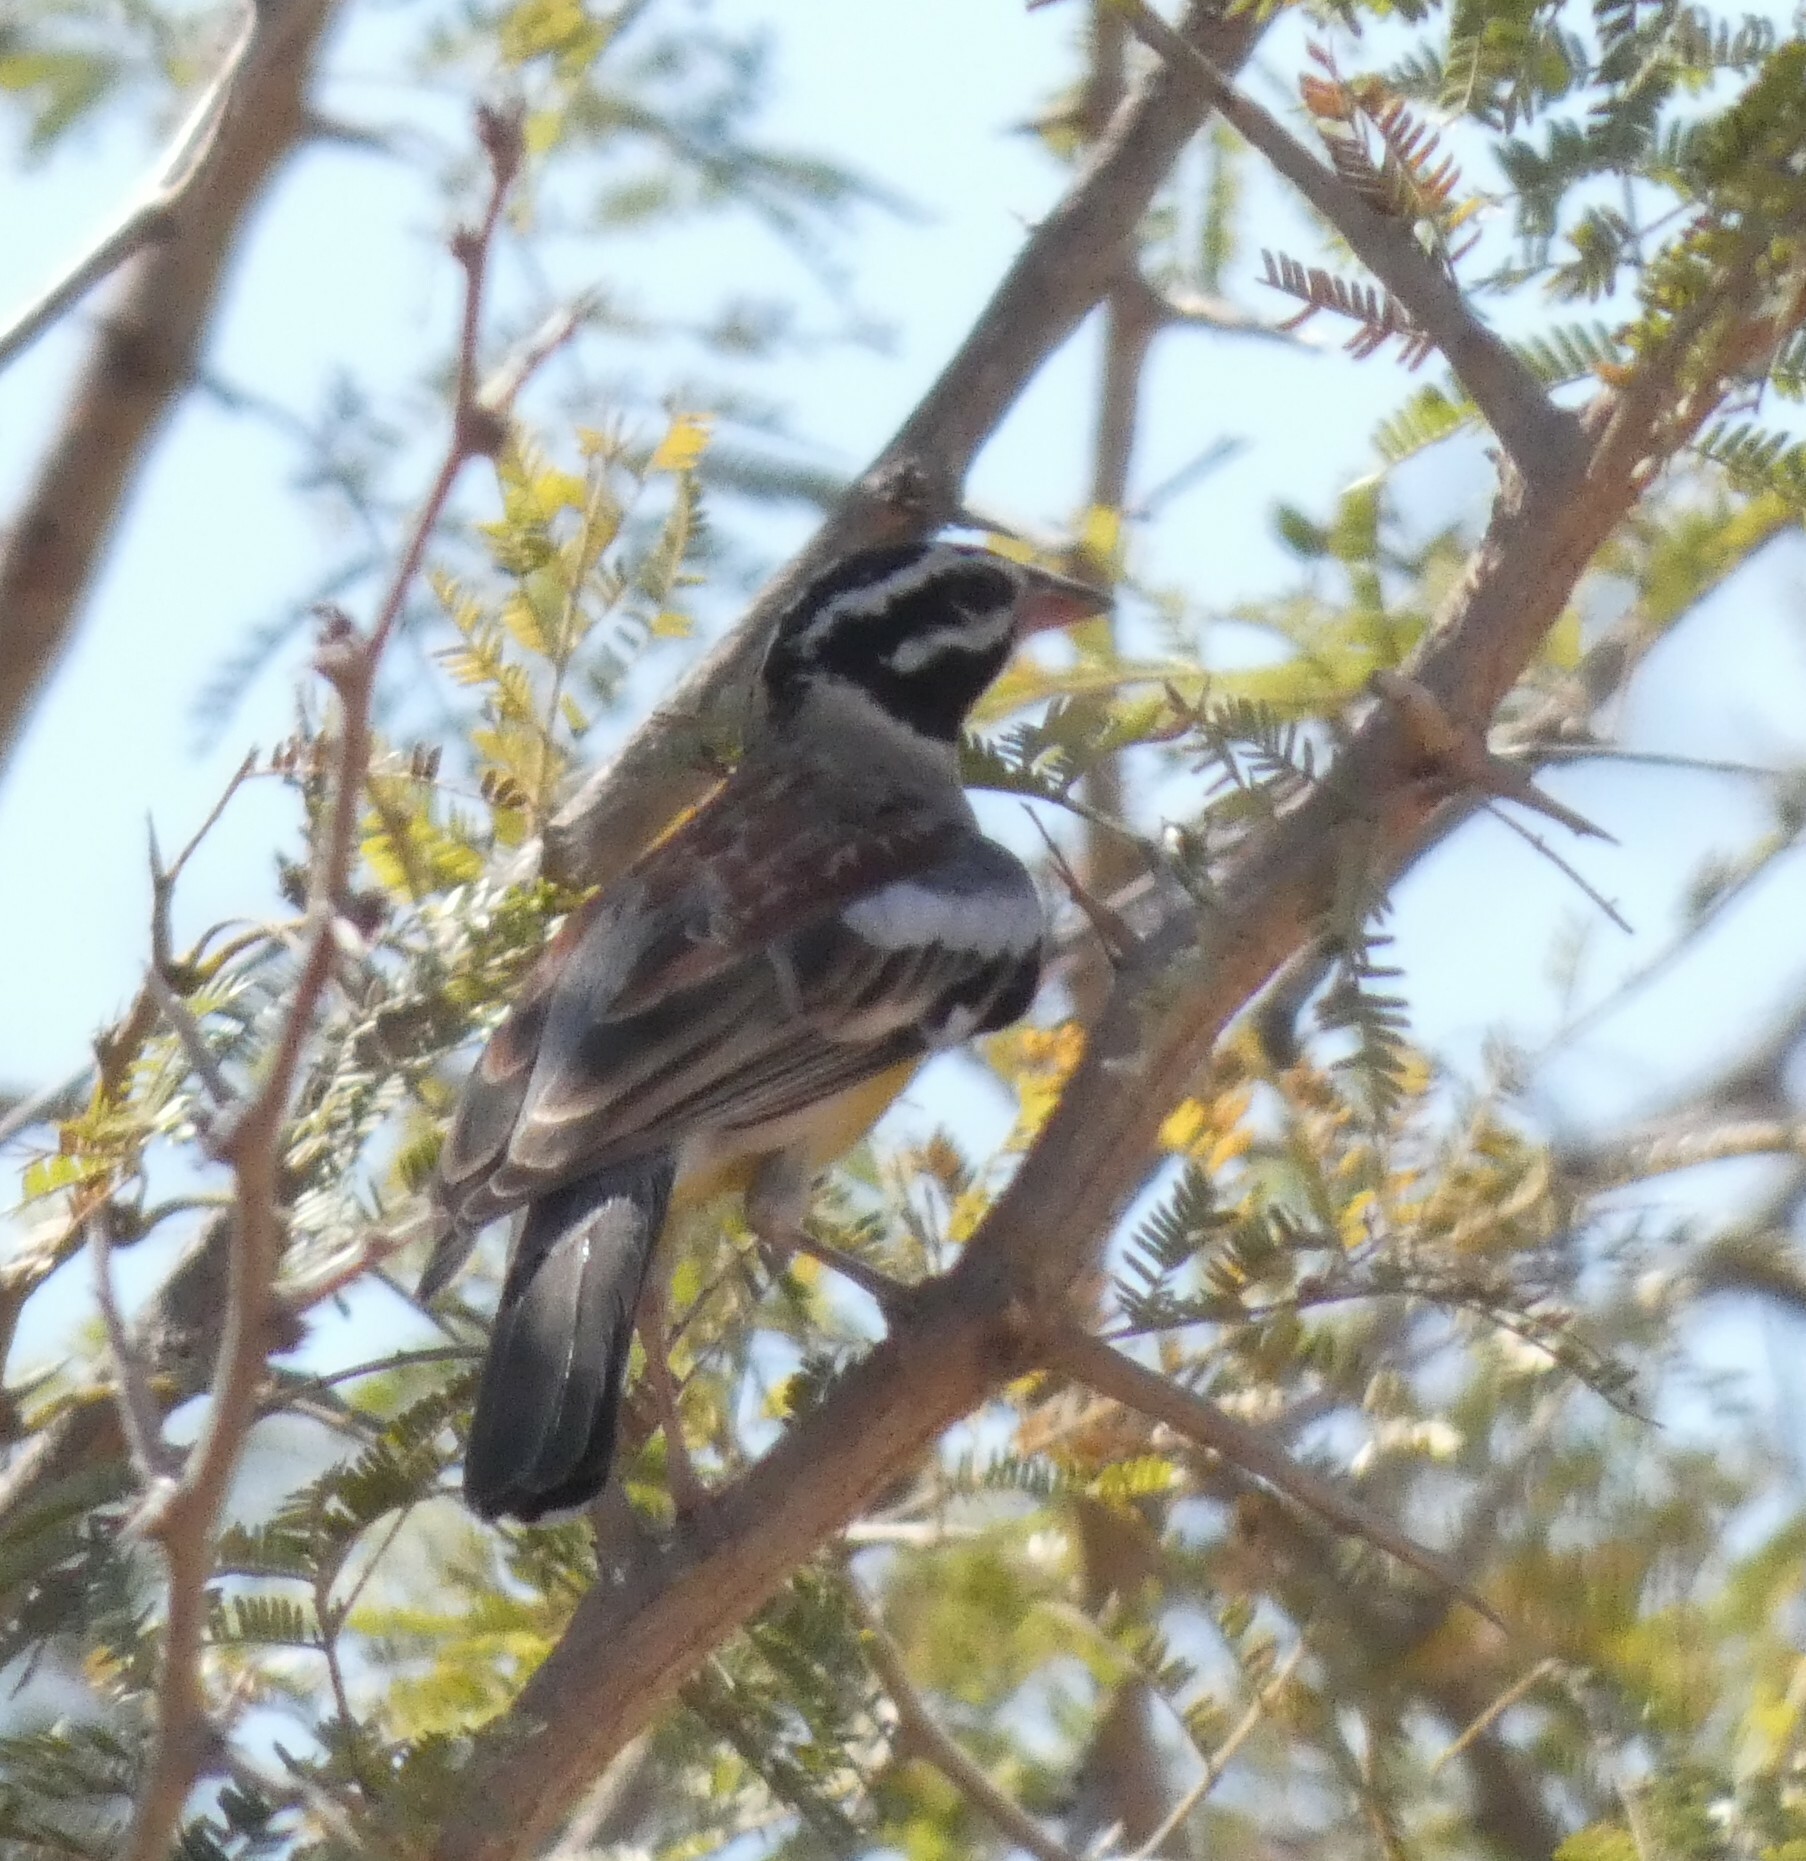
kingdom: Animalia
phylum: Chordata
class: Aves
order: Passeriformes
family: Emberizidae
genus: Emberiza
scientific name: Emberiza flaviventris
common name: Golden-breasted bunting
